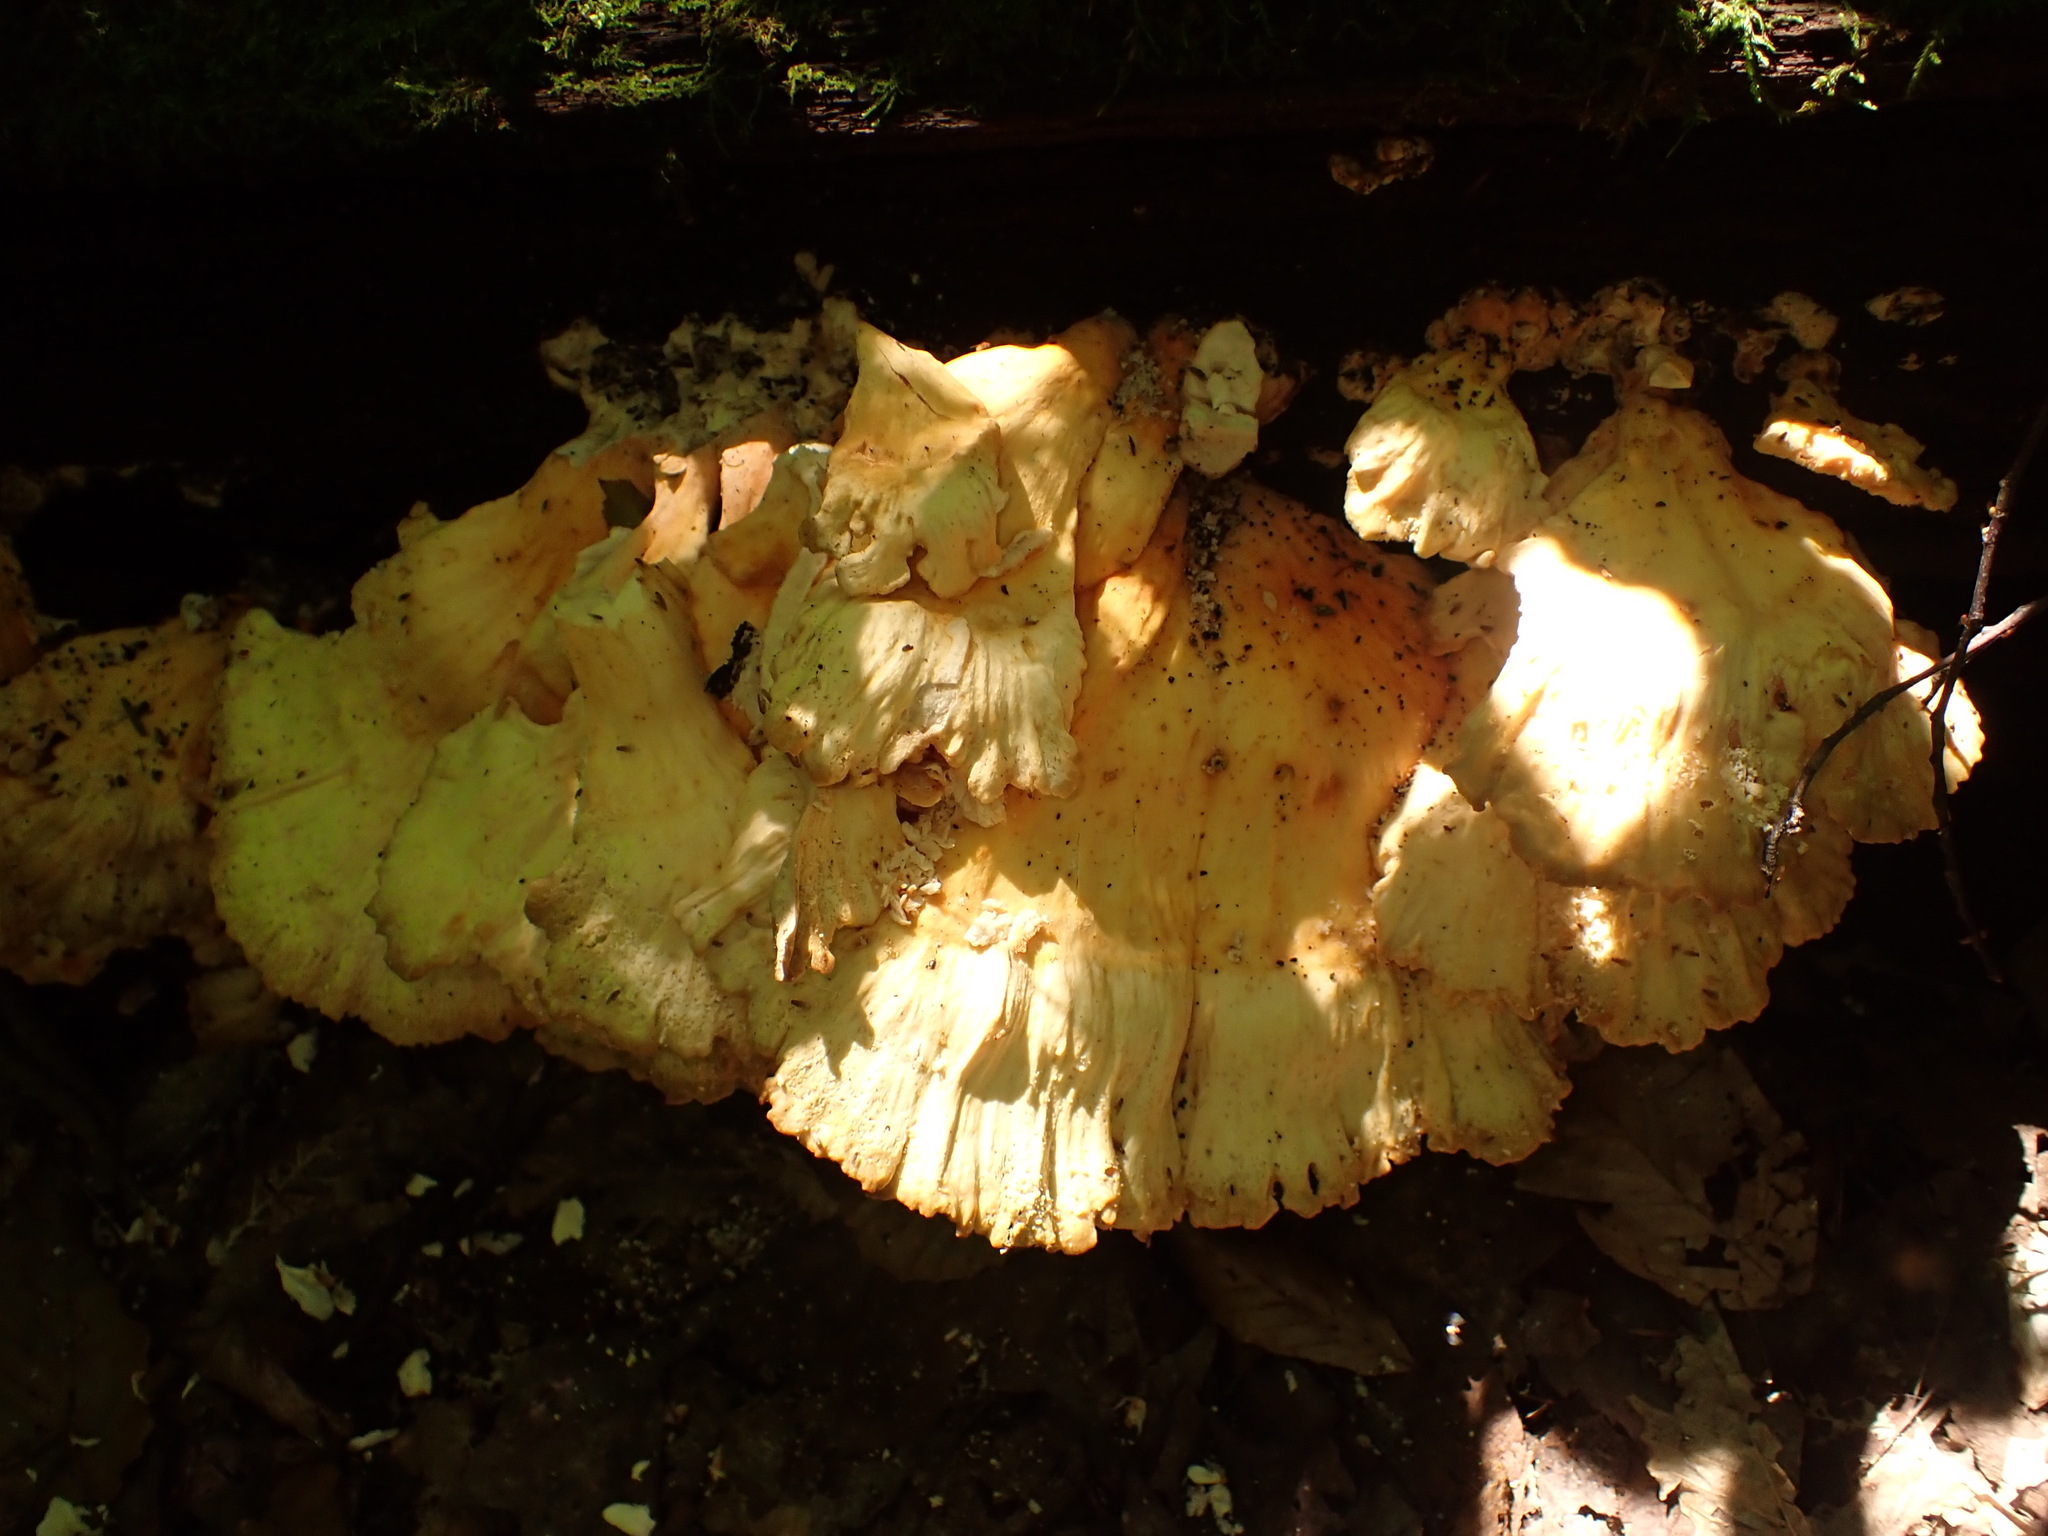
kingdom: Fungi
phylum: Basidiomycota
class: Agaricomycetes
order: Polyporales
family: Laetiporaceae
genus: Laetiporus
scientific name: Laetiporus sulphureus
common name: Chicken of the woods
